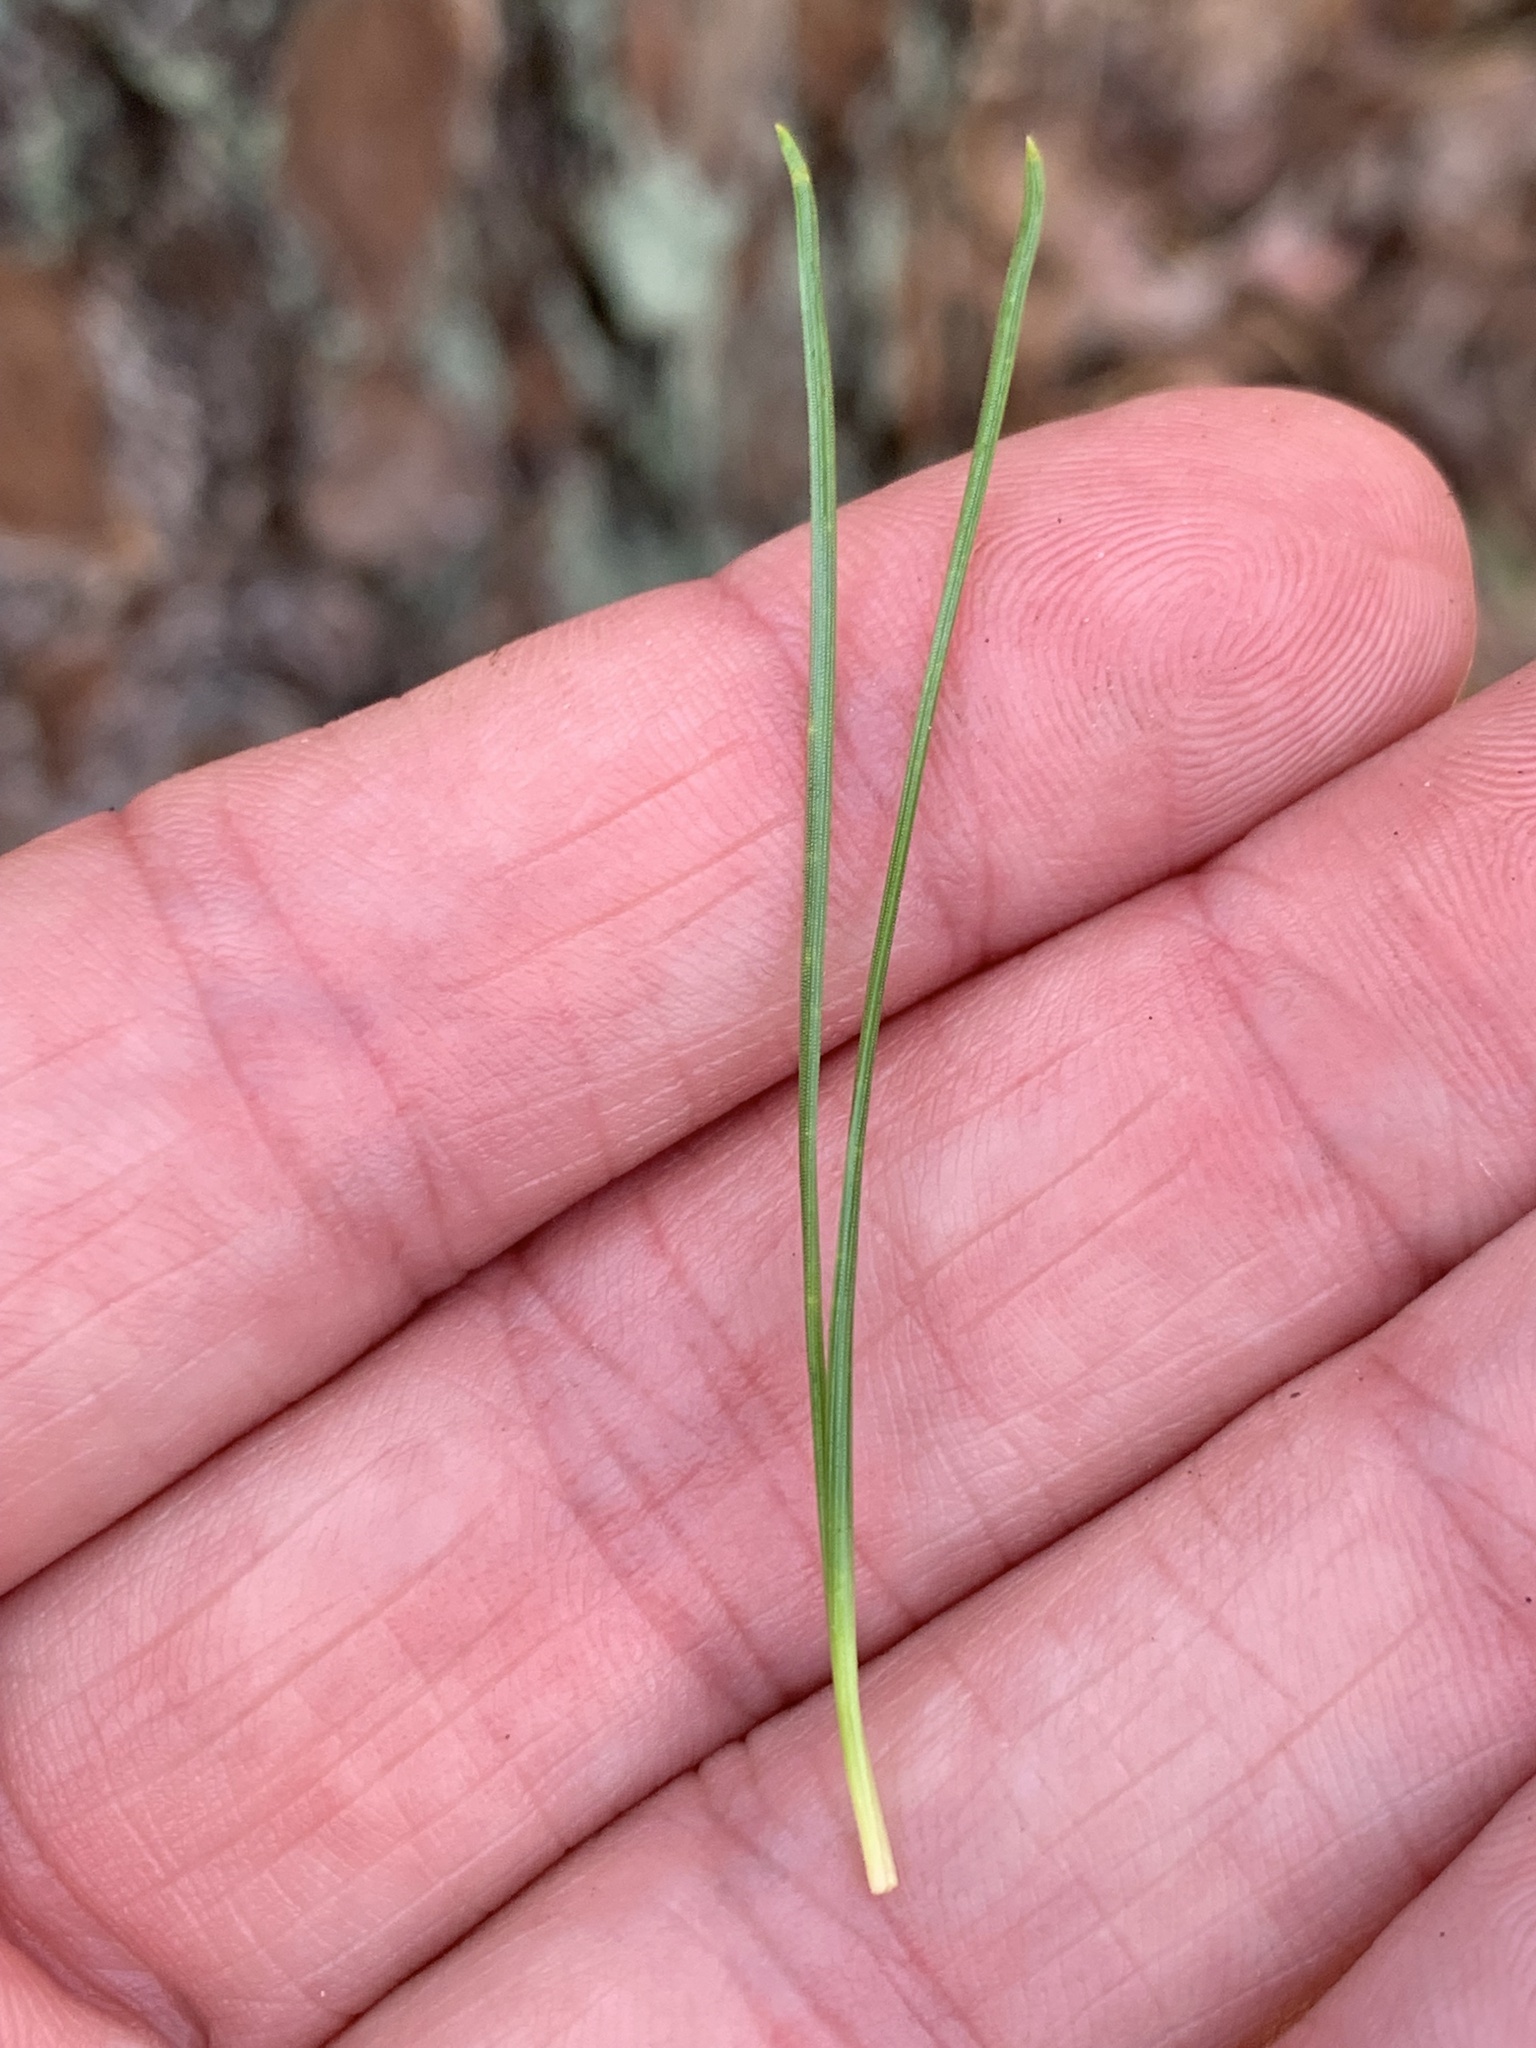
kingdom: Plantae
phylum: Tracheophyta
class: Pinopsida
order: Pinales
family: Pinaceae
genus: Pinus
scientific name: Pinus rigida
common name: Pitch pine
